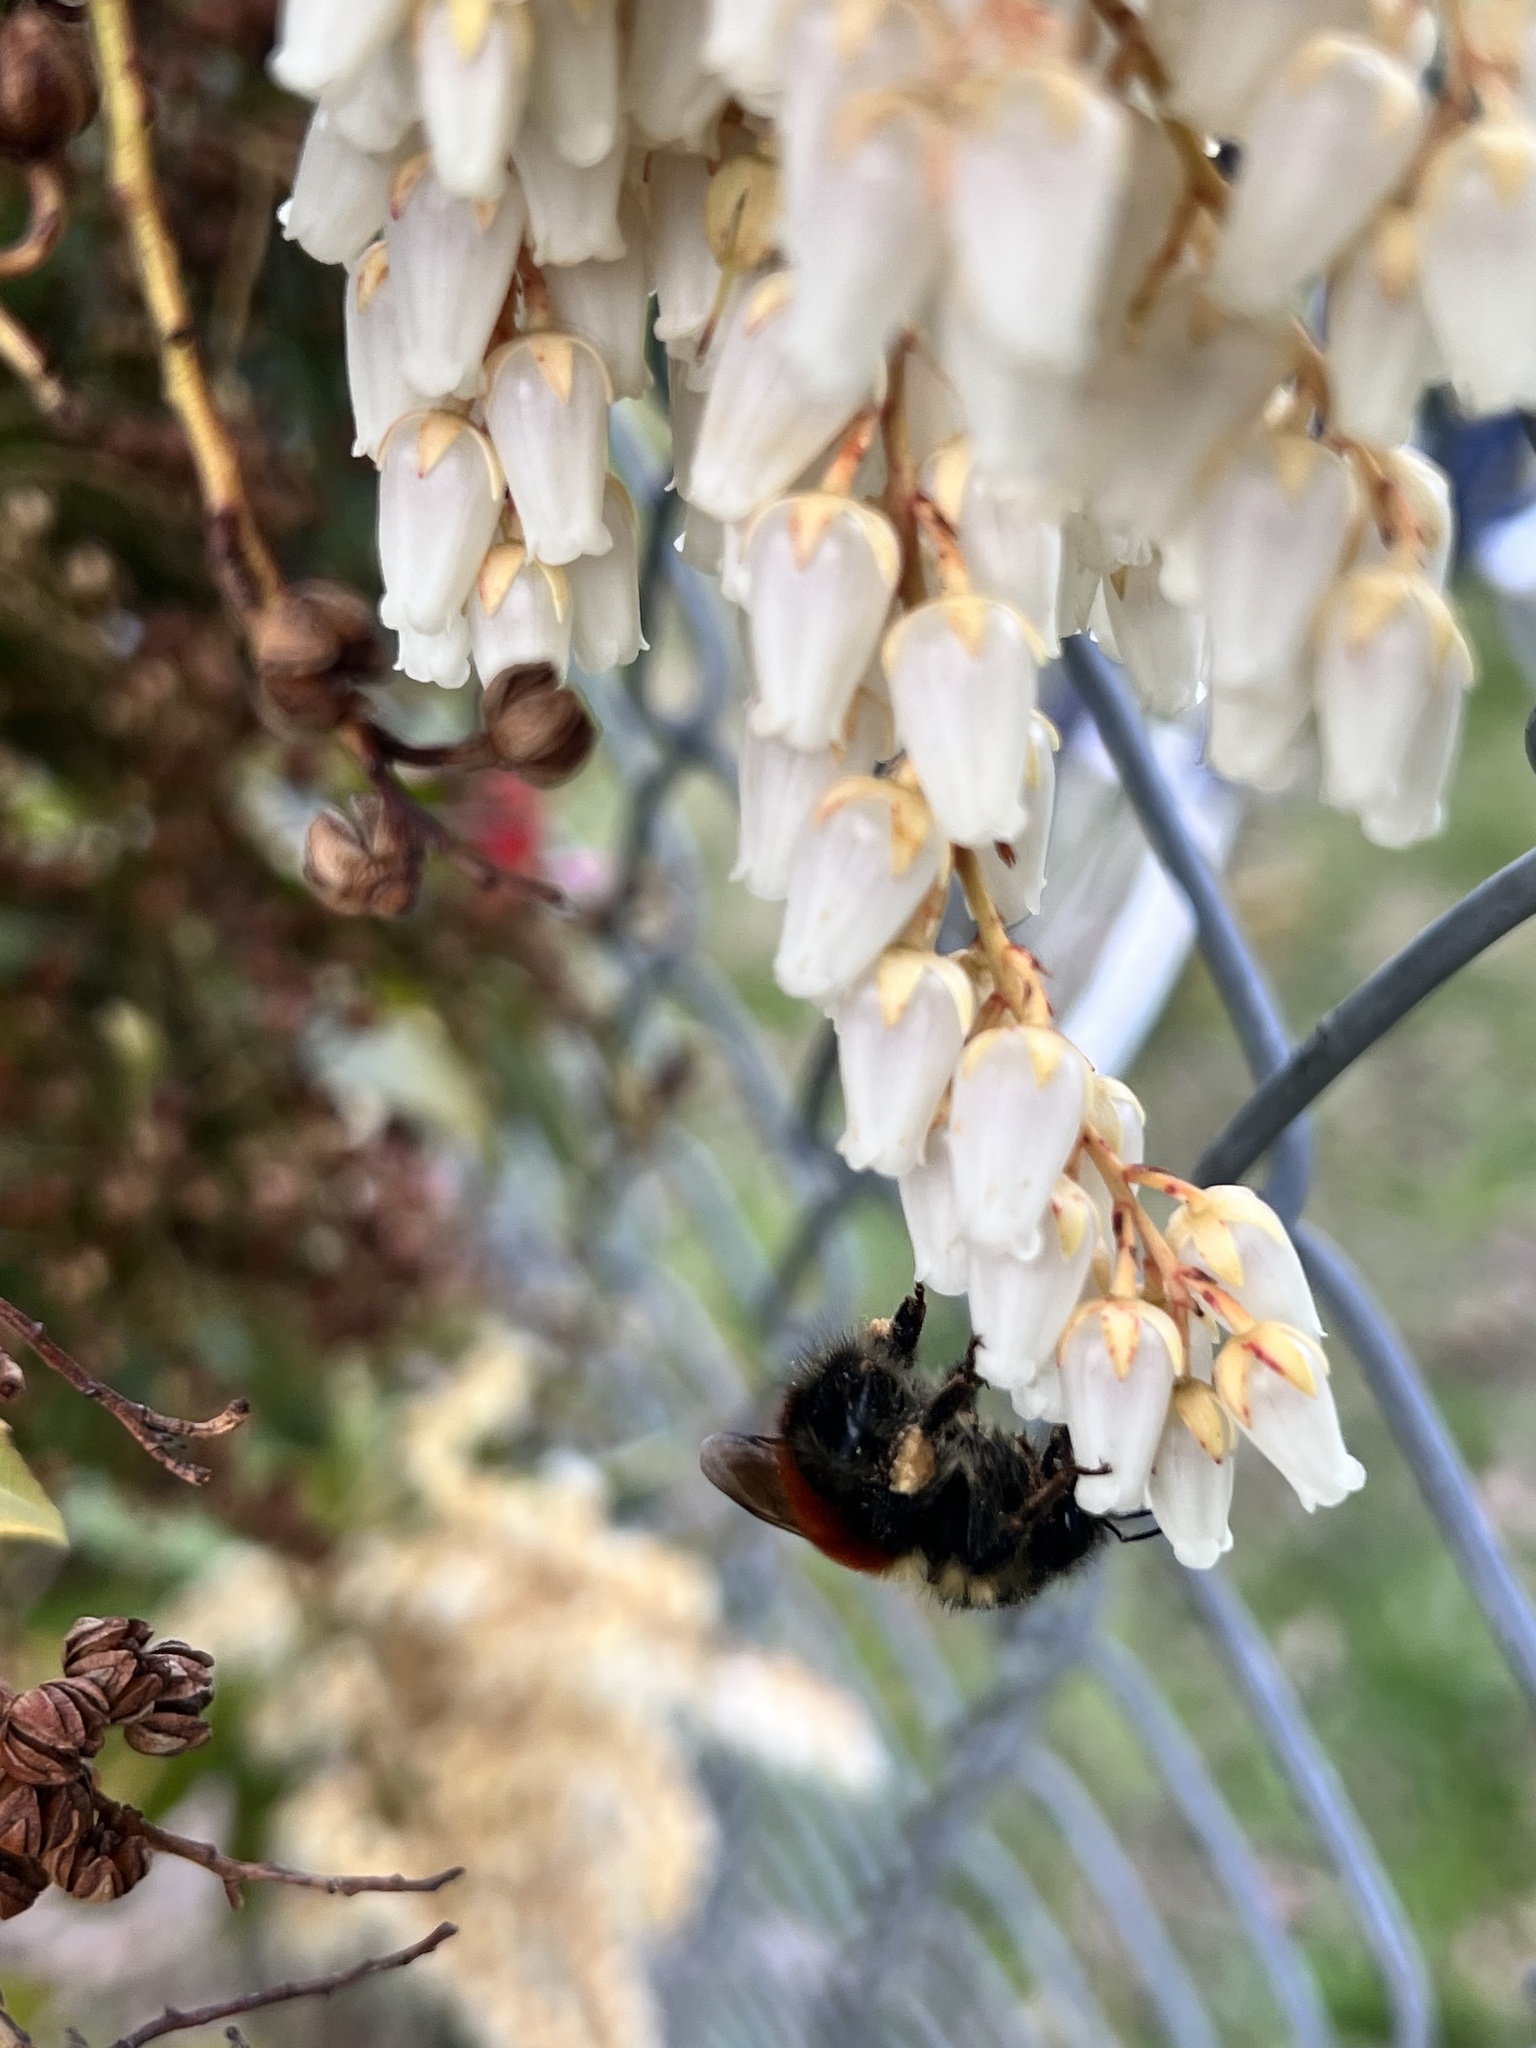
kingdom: Animalia
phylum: Arthropoda
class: Insecta
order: Hymenoptera
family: Apidae
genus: Bombus
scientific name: Bombus melanopygus
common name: Black tail bumble bee
